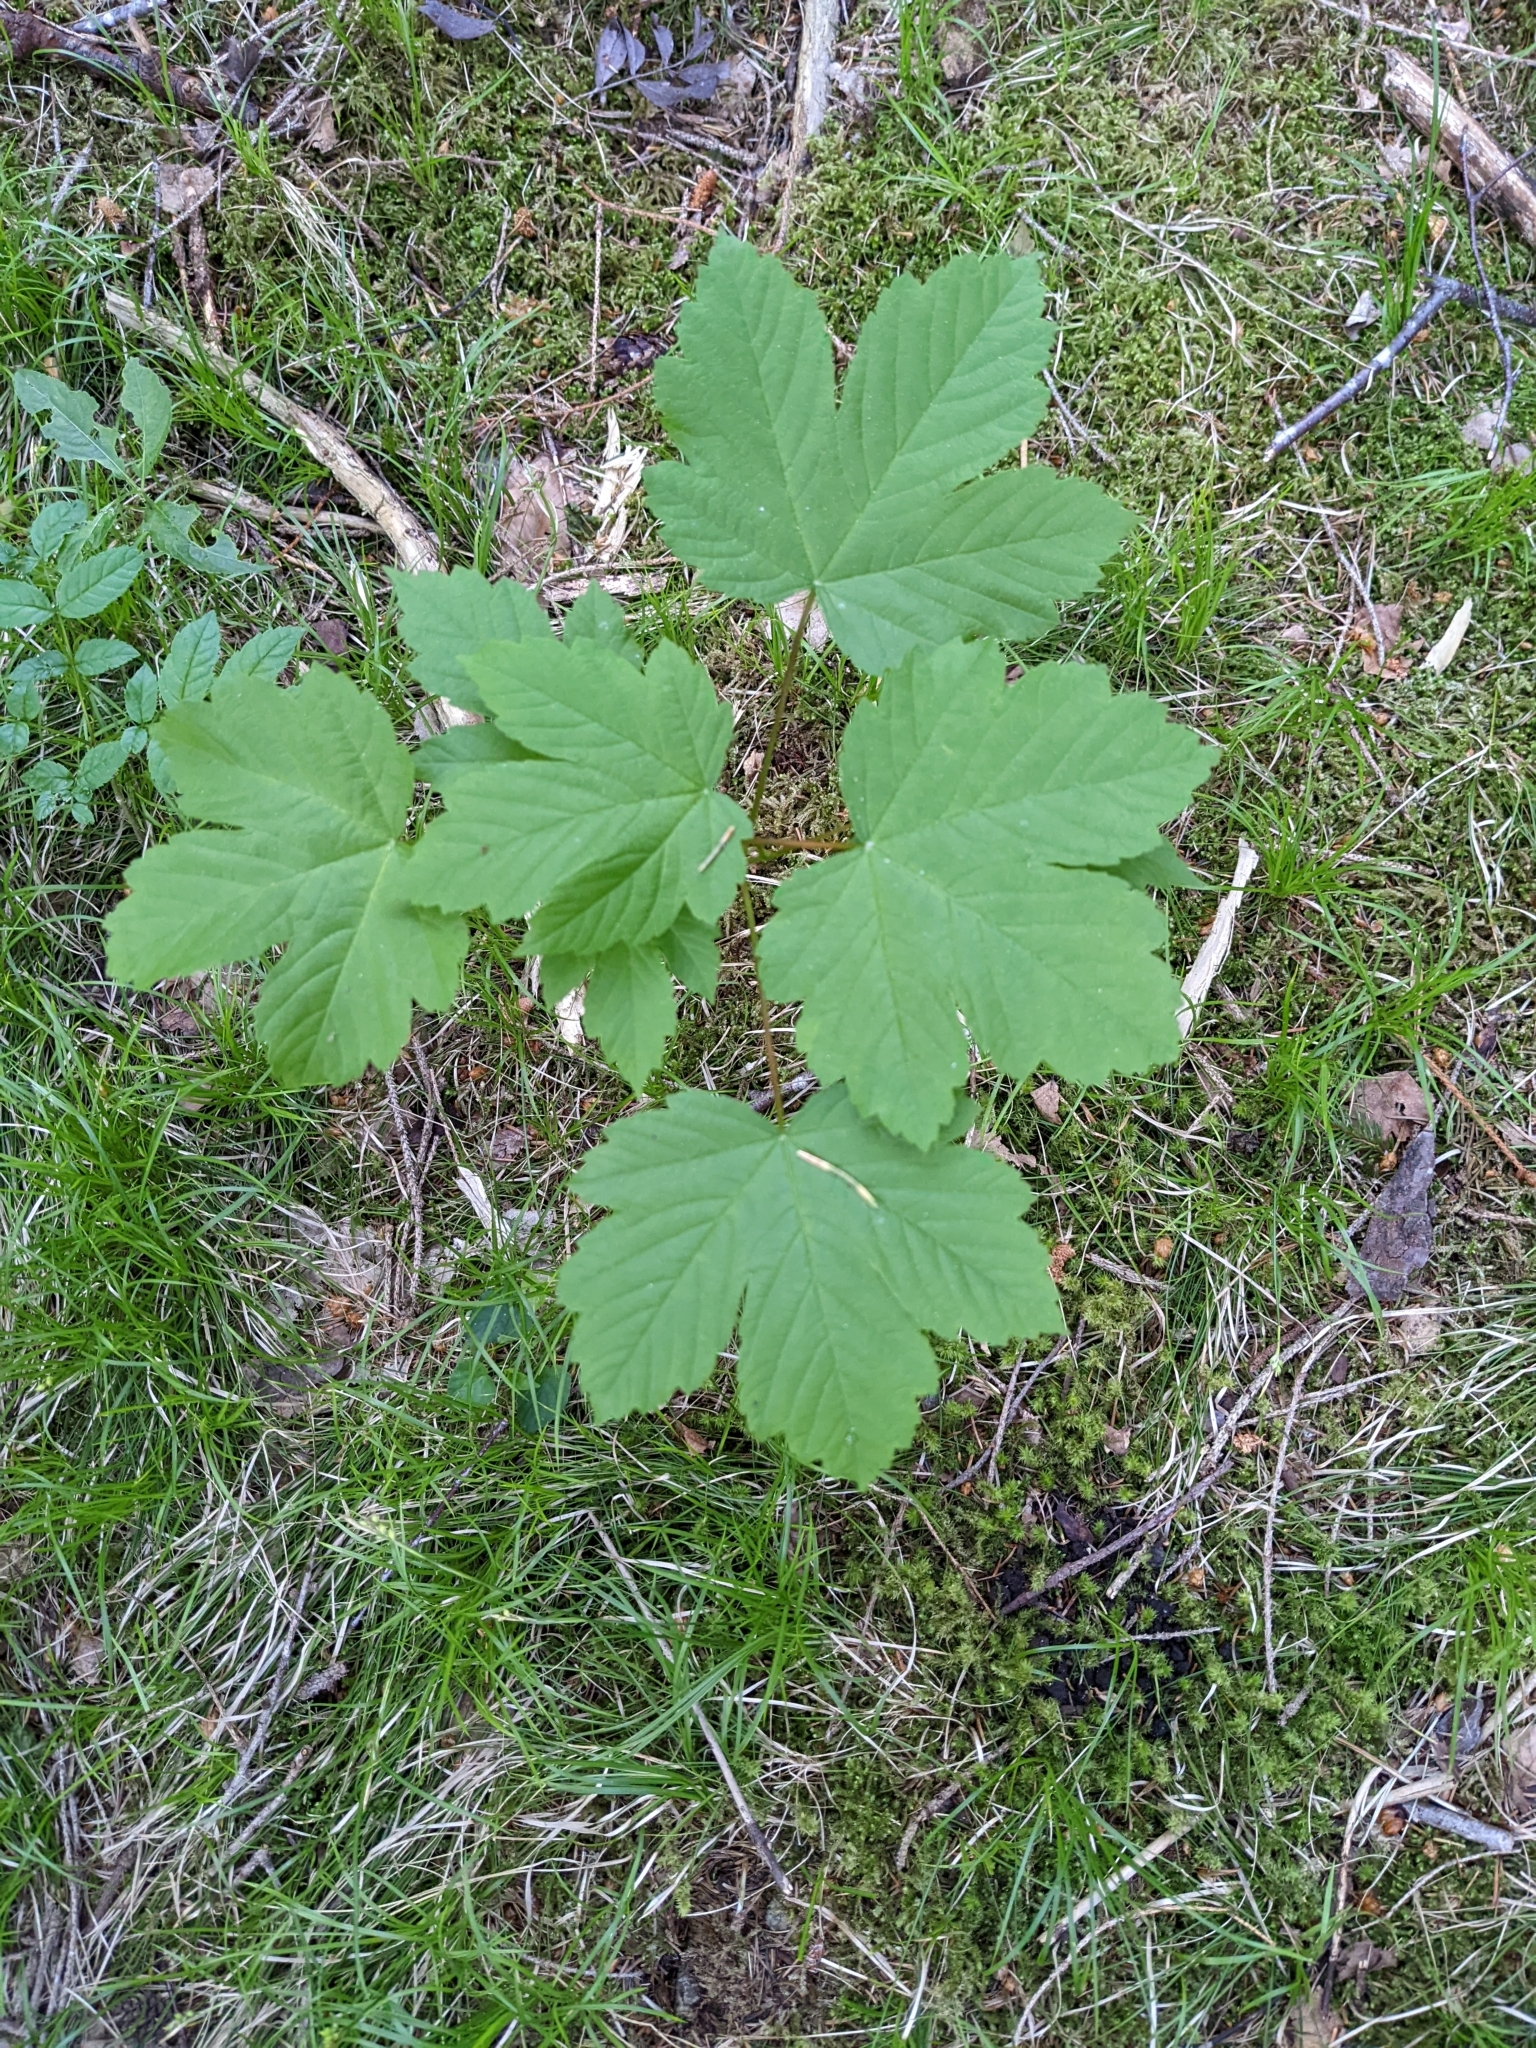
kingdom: Plantae
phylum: Tracheophyta
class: Magnoliopsida
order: Sapindales
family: Sapindaceae
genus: Acer
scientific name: Acer pseudoplatanus
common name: Sycamore
